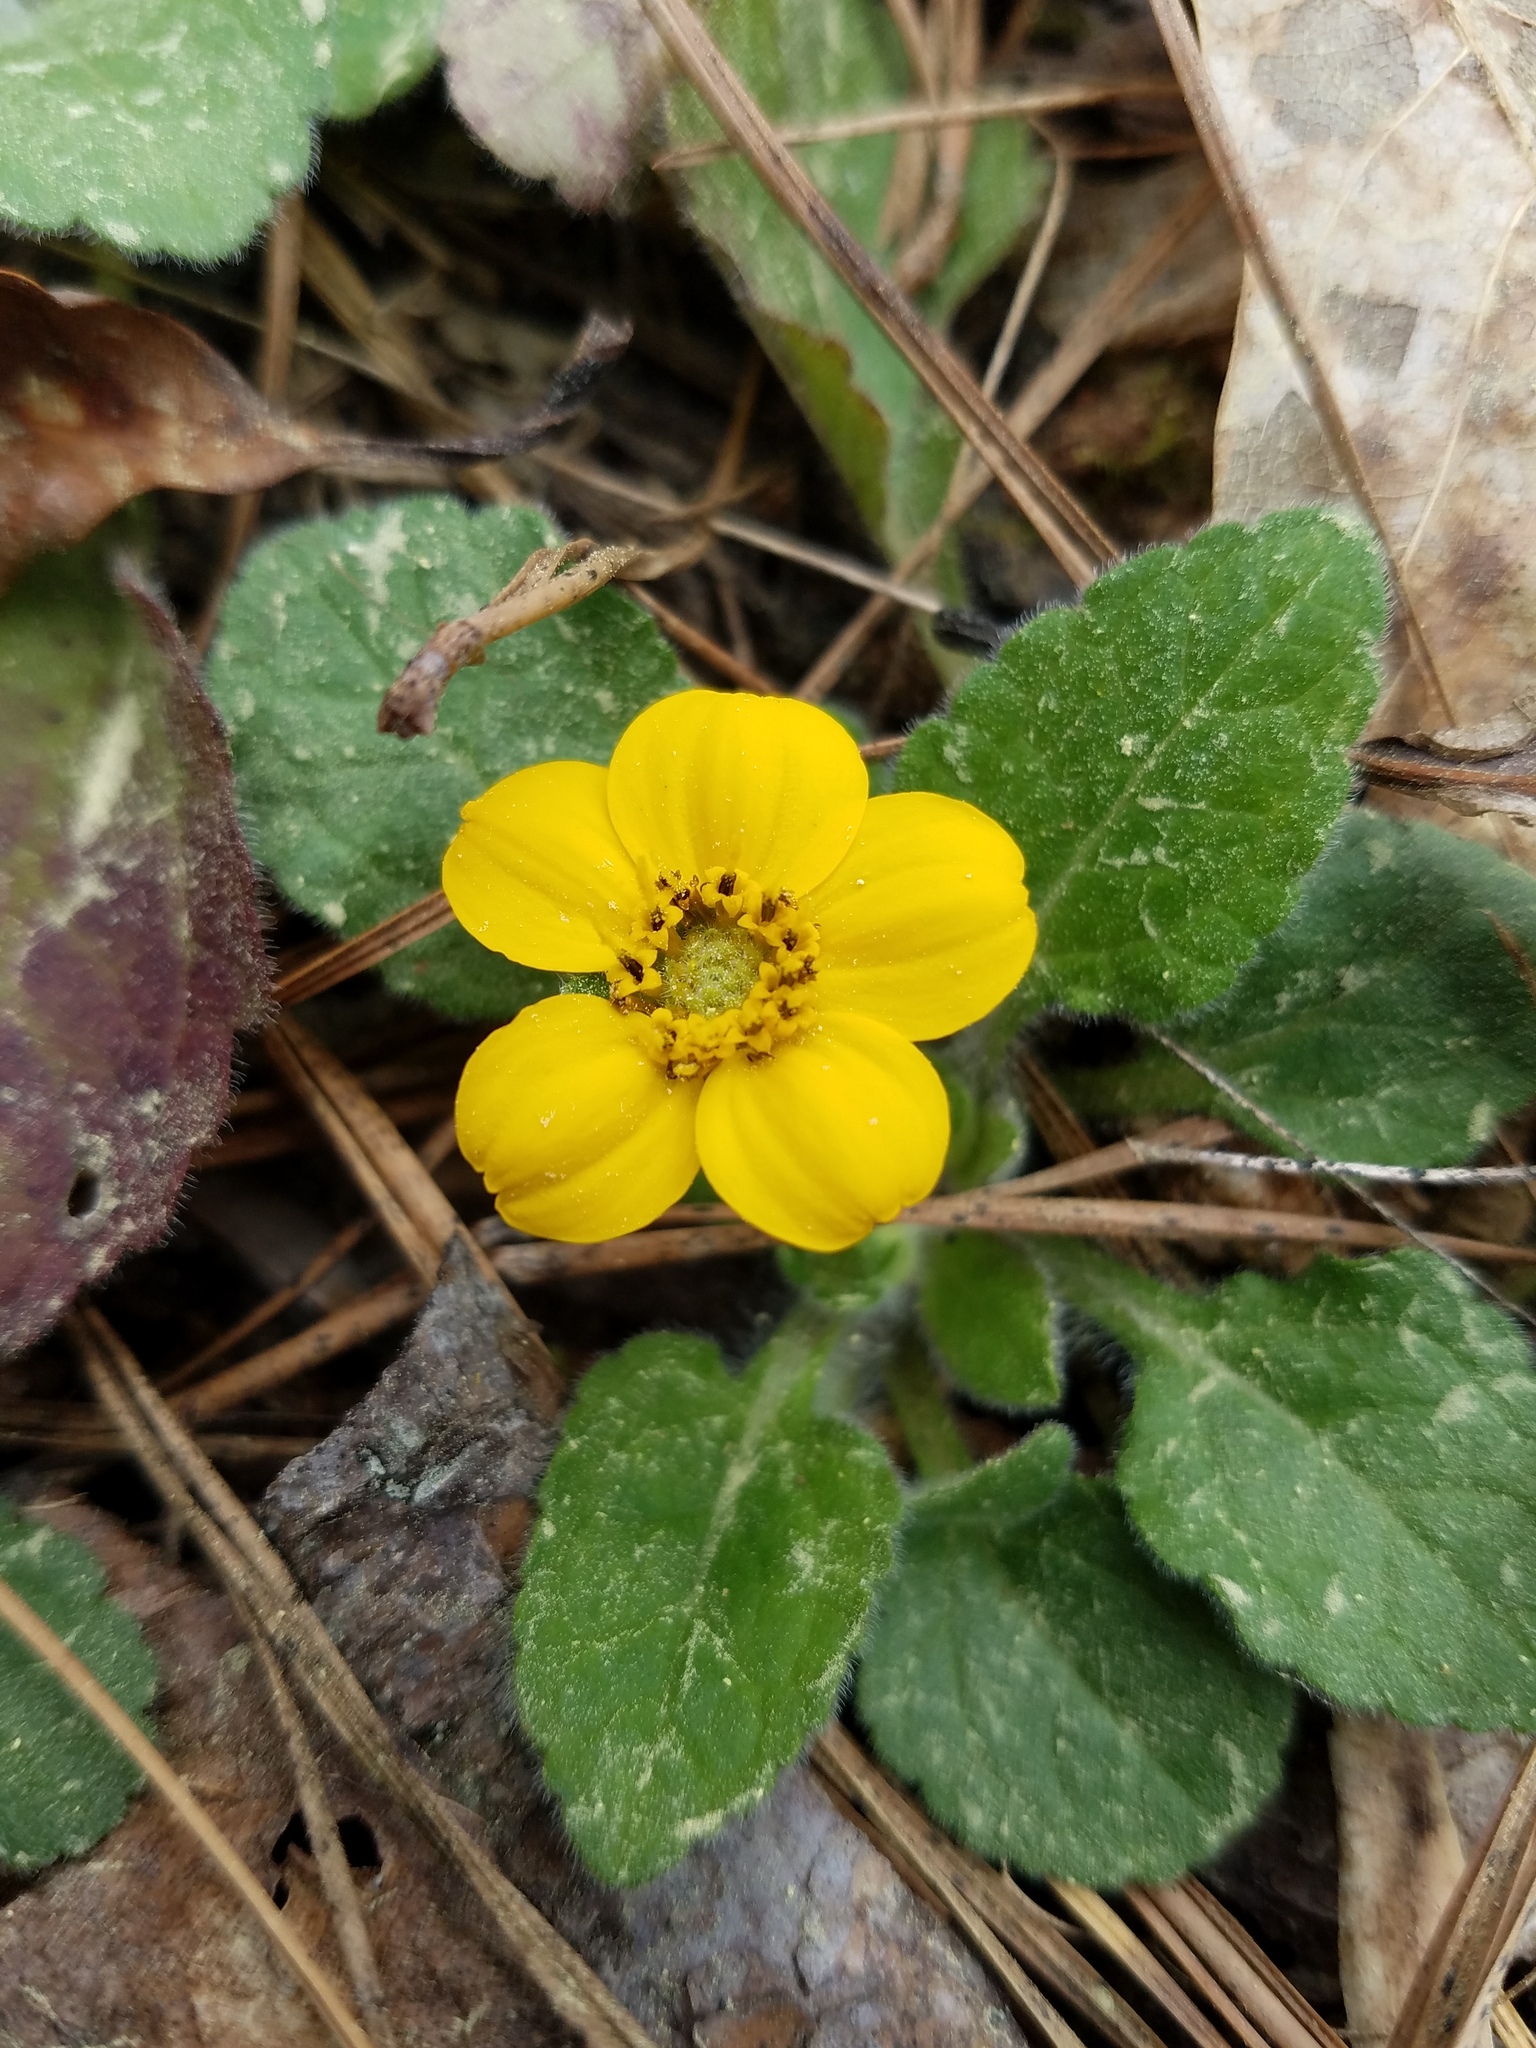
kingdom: Plantae
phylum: Tracheophyta
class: Magnoliopsida
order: Asterales
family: Asteraceae
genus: Chrysogonum
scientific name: Chrysogonum virginianum
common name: Golden-knee
